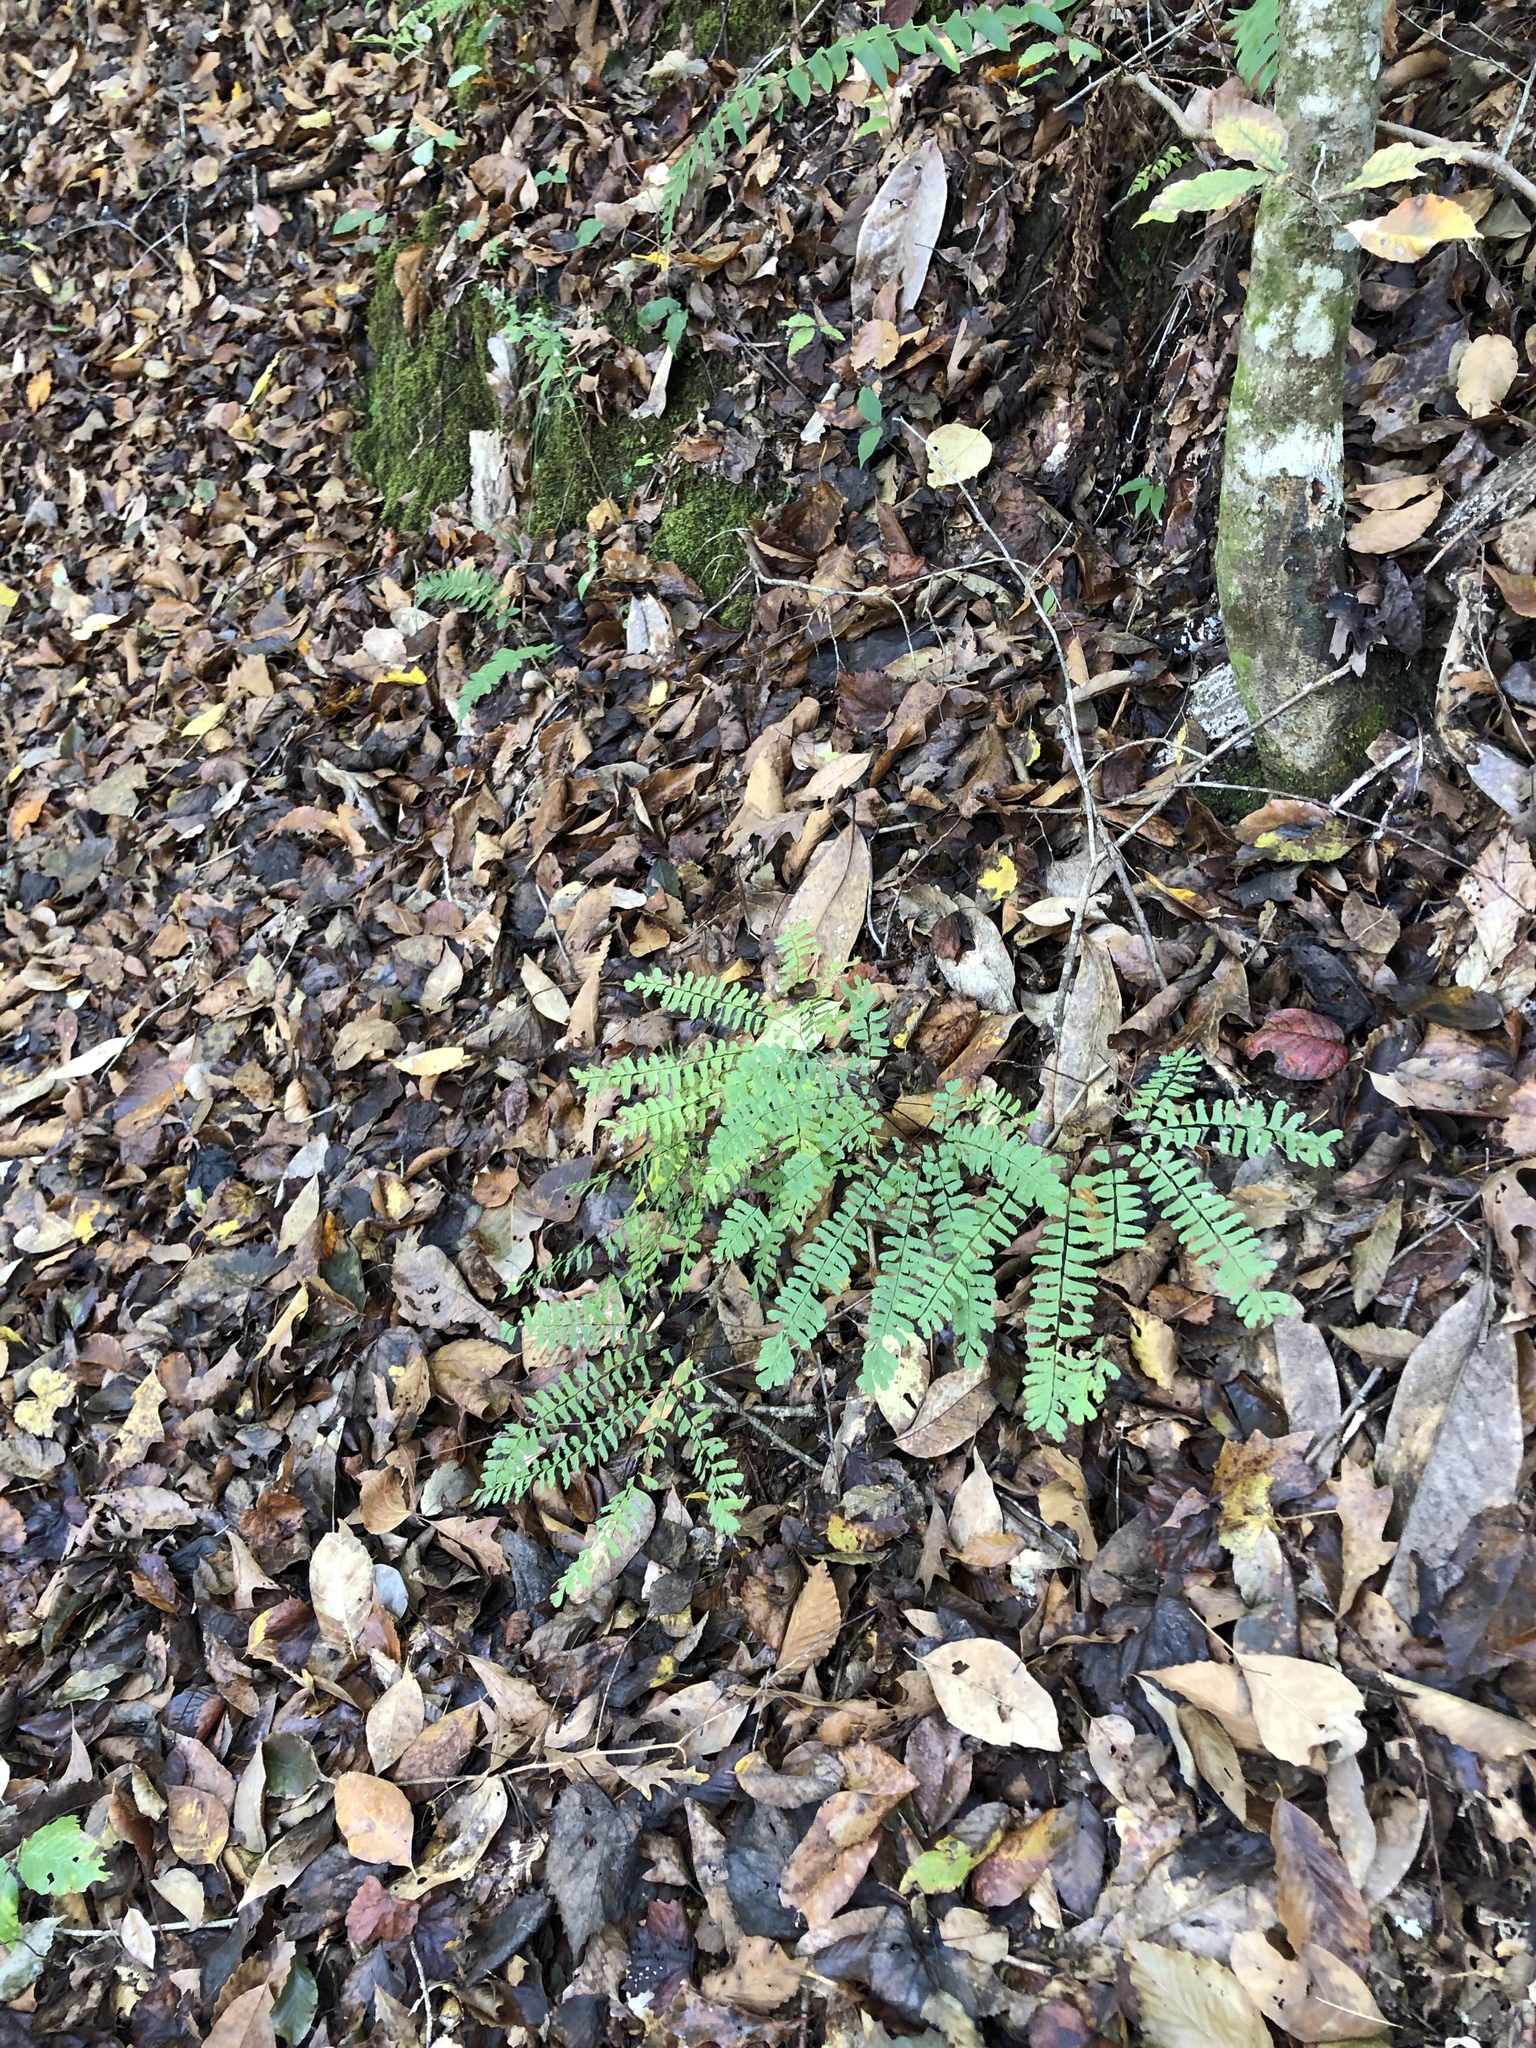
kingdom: Plantae
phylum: Tracheophyta
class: Polypodiopsida
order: Polypodiales
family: Pteridaceae
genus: Adiantum
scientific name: Adiantum pedatum
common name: Five-finger fern
